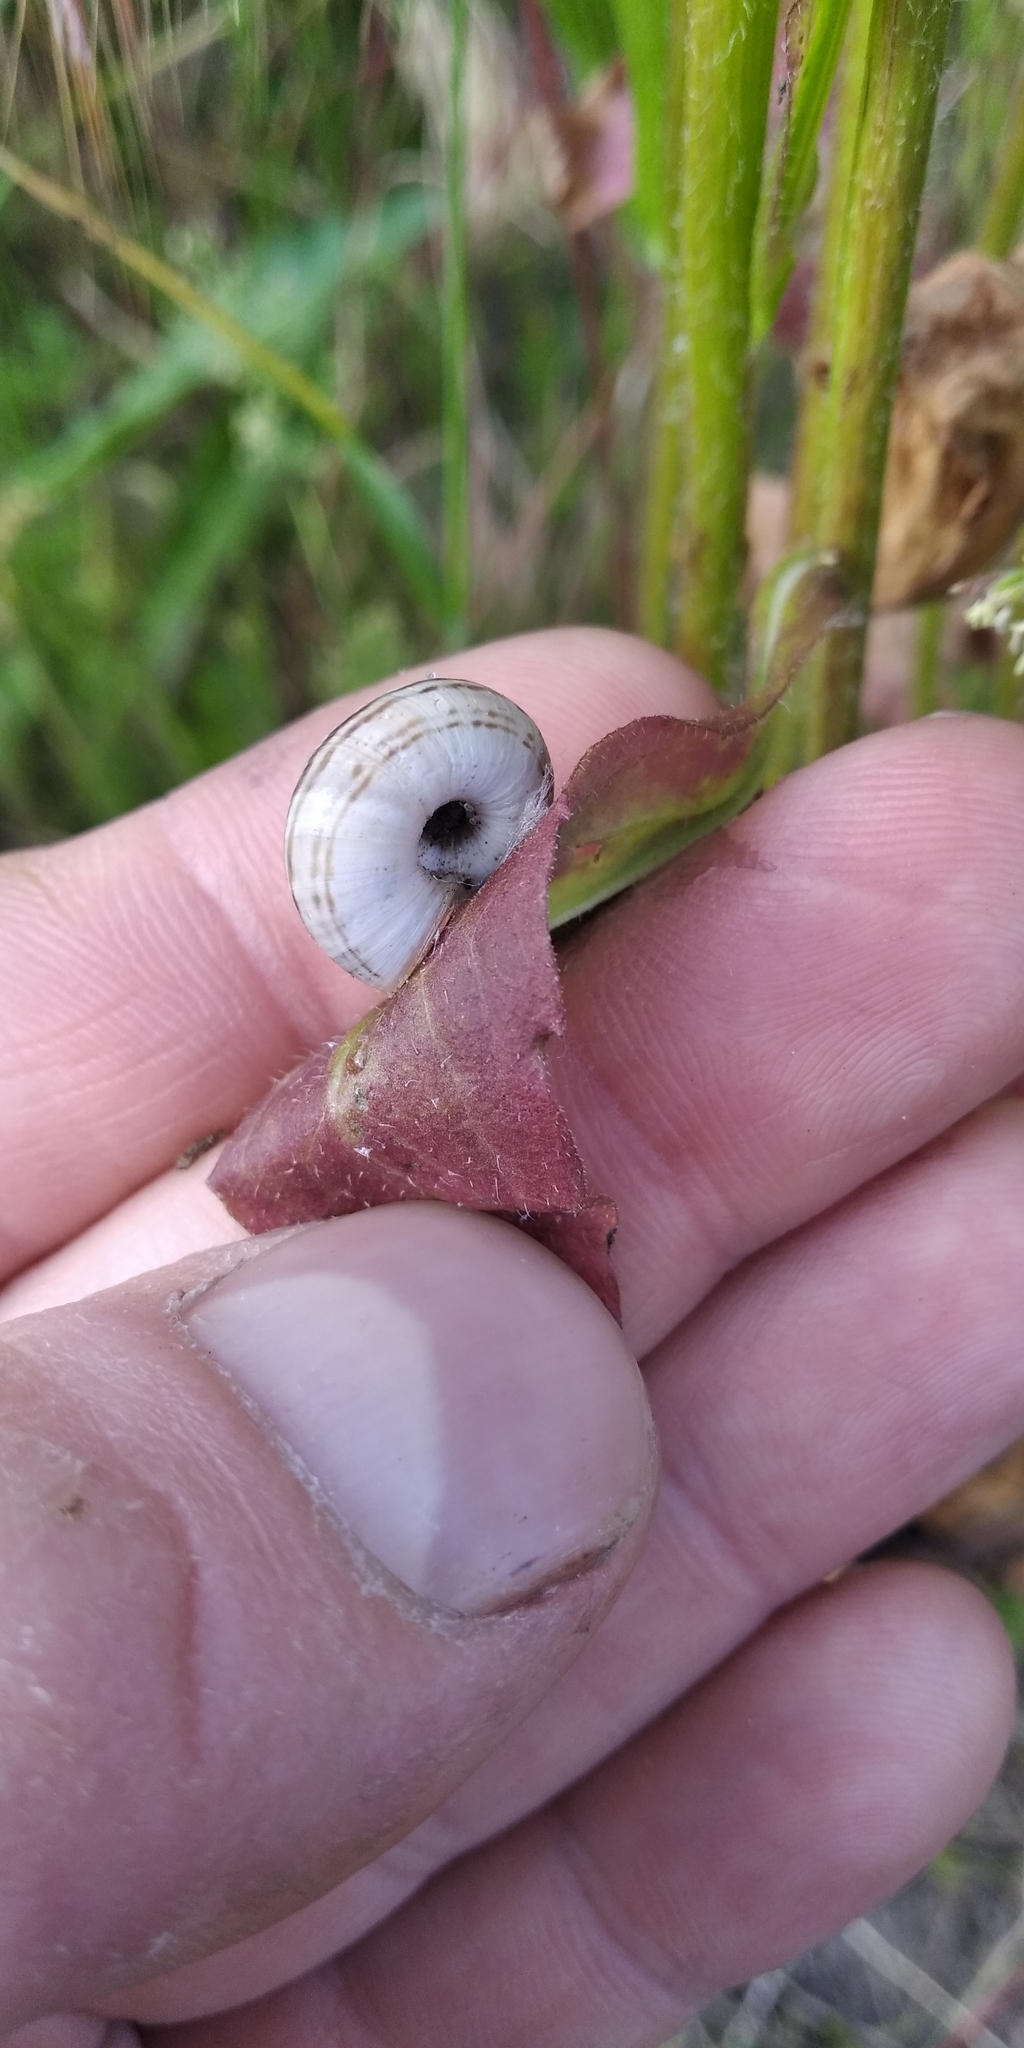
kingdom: Animalia
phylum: Mollusca
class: Gastropoda
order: Stylommatophora
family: Geomitridae
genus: Xerolenta
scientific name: Xerolenta obvia
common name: White heath snail
